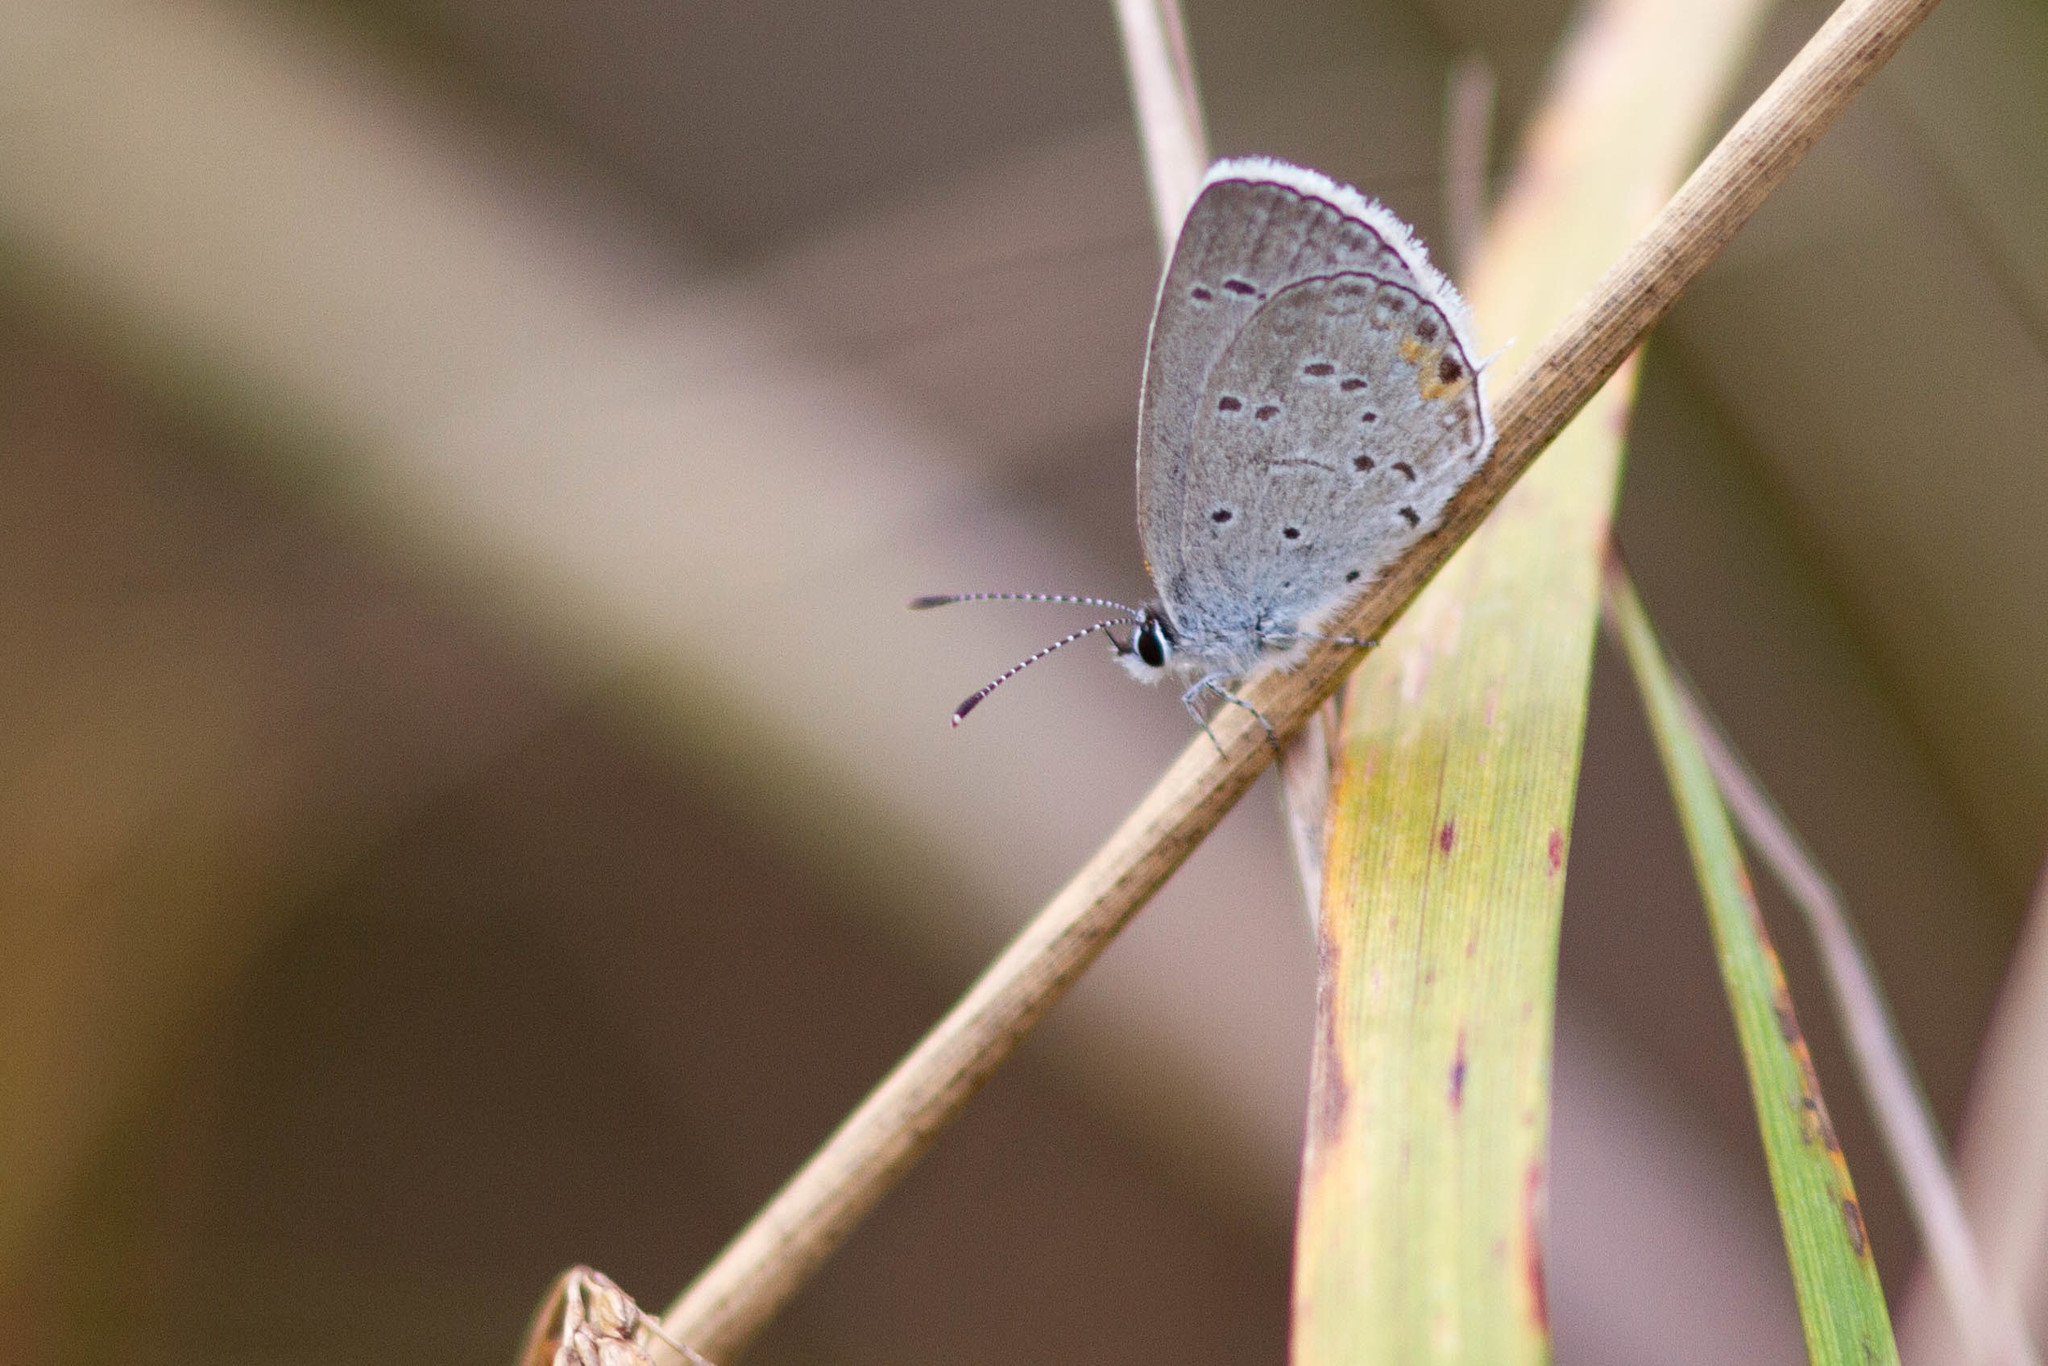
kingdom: Animalia
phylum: Arthropoda
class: Insecta
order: Lepidoptera
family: Lycaenidae
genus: Elkalyce
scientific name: Elkalyce comyntas
